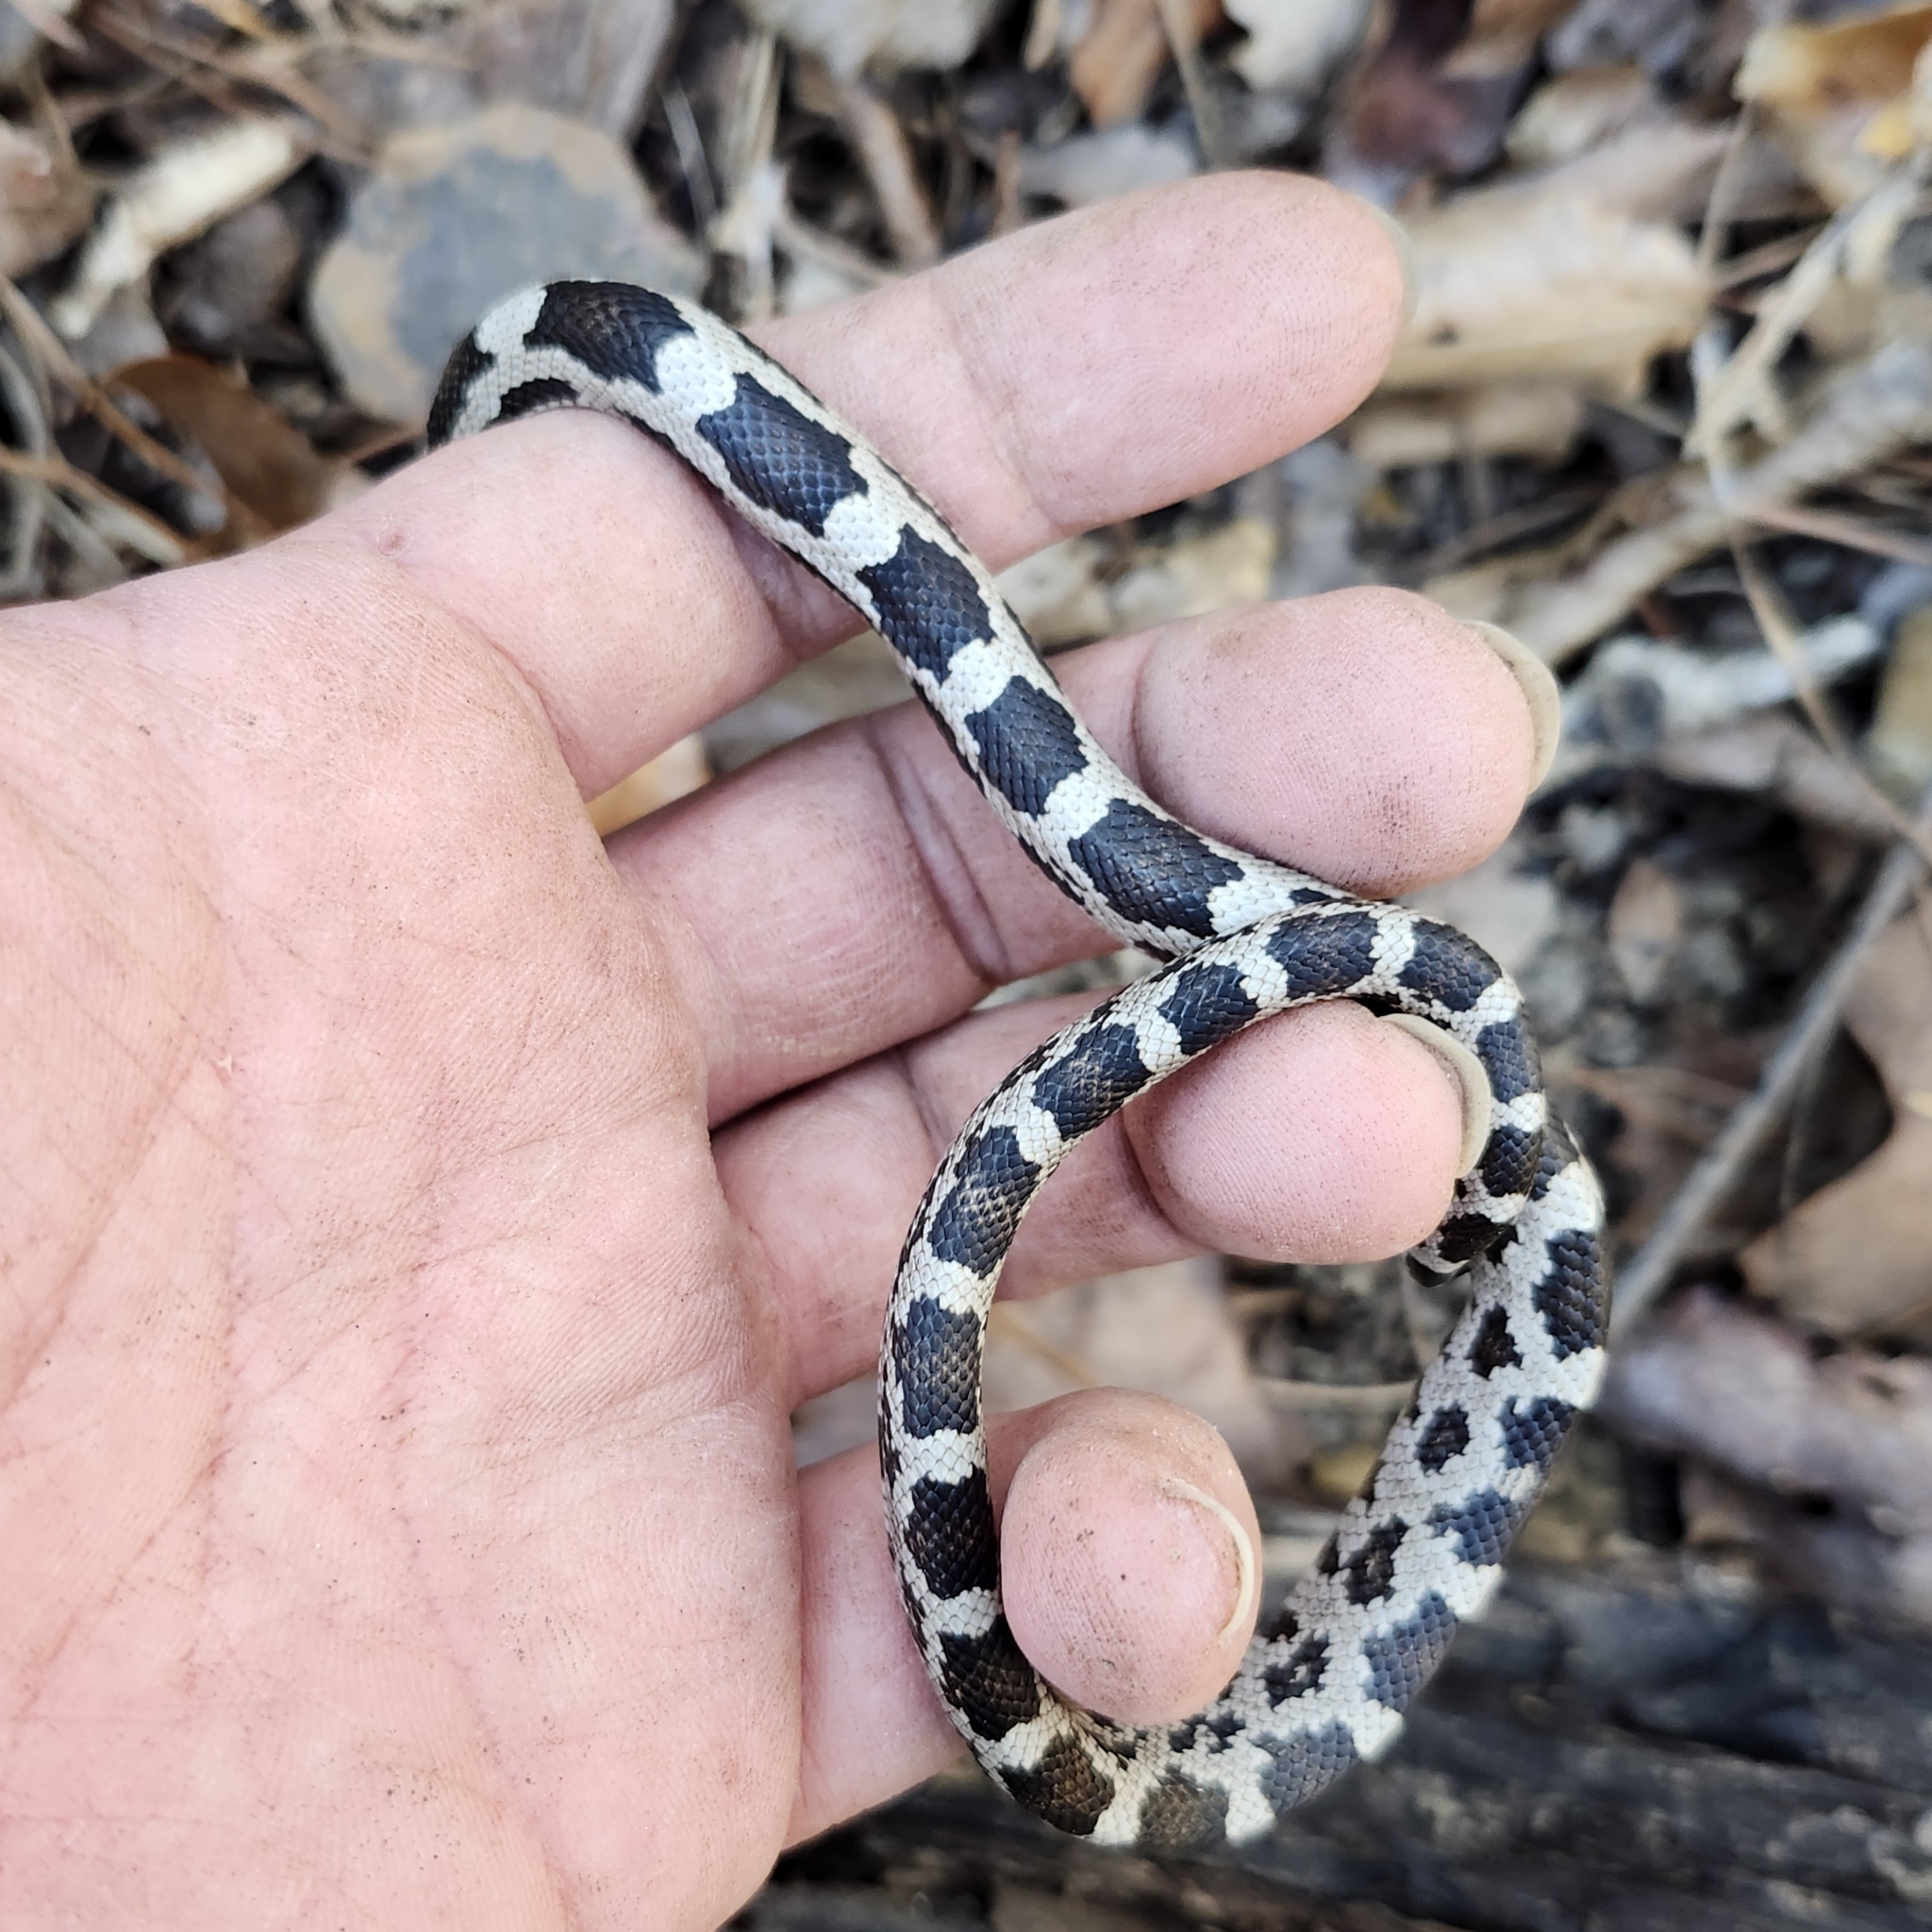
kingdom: Animalia
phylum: Chordata
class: Squamata
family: Colubridae
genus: Pantherophis
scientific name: Pantherophis spiloides
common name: Gray rat snake
